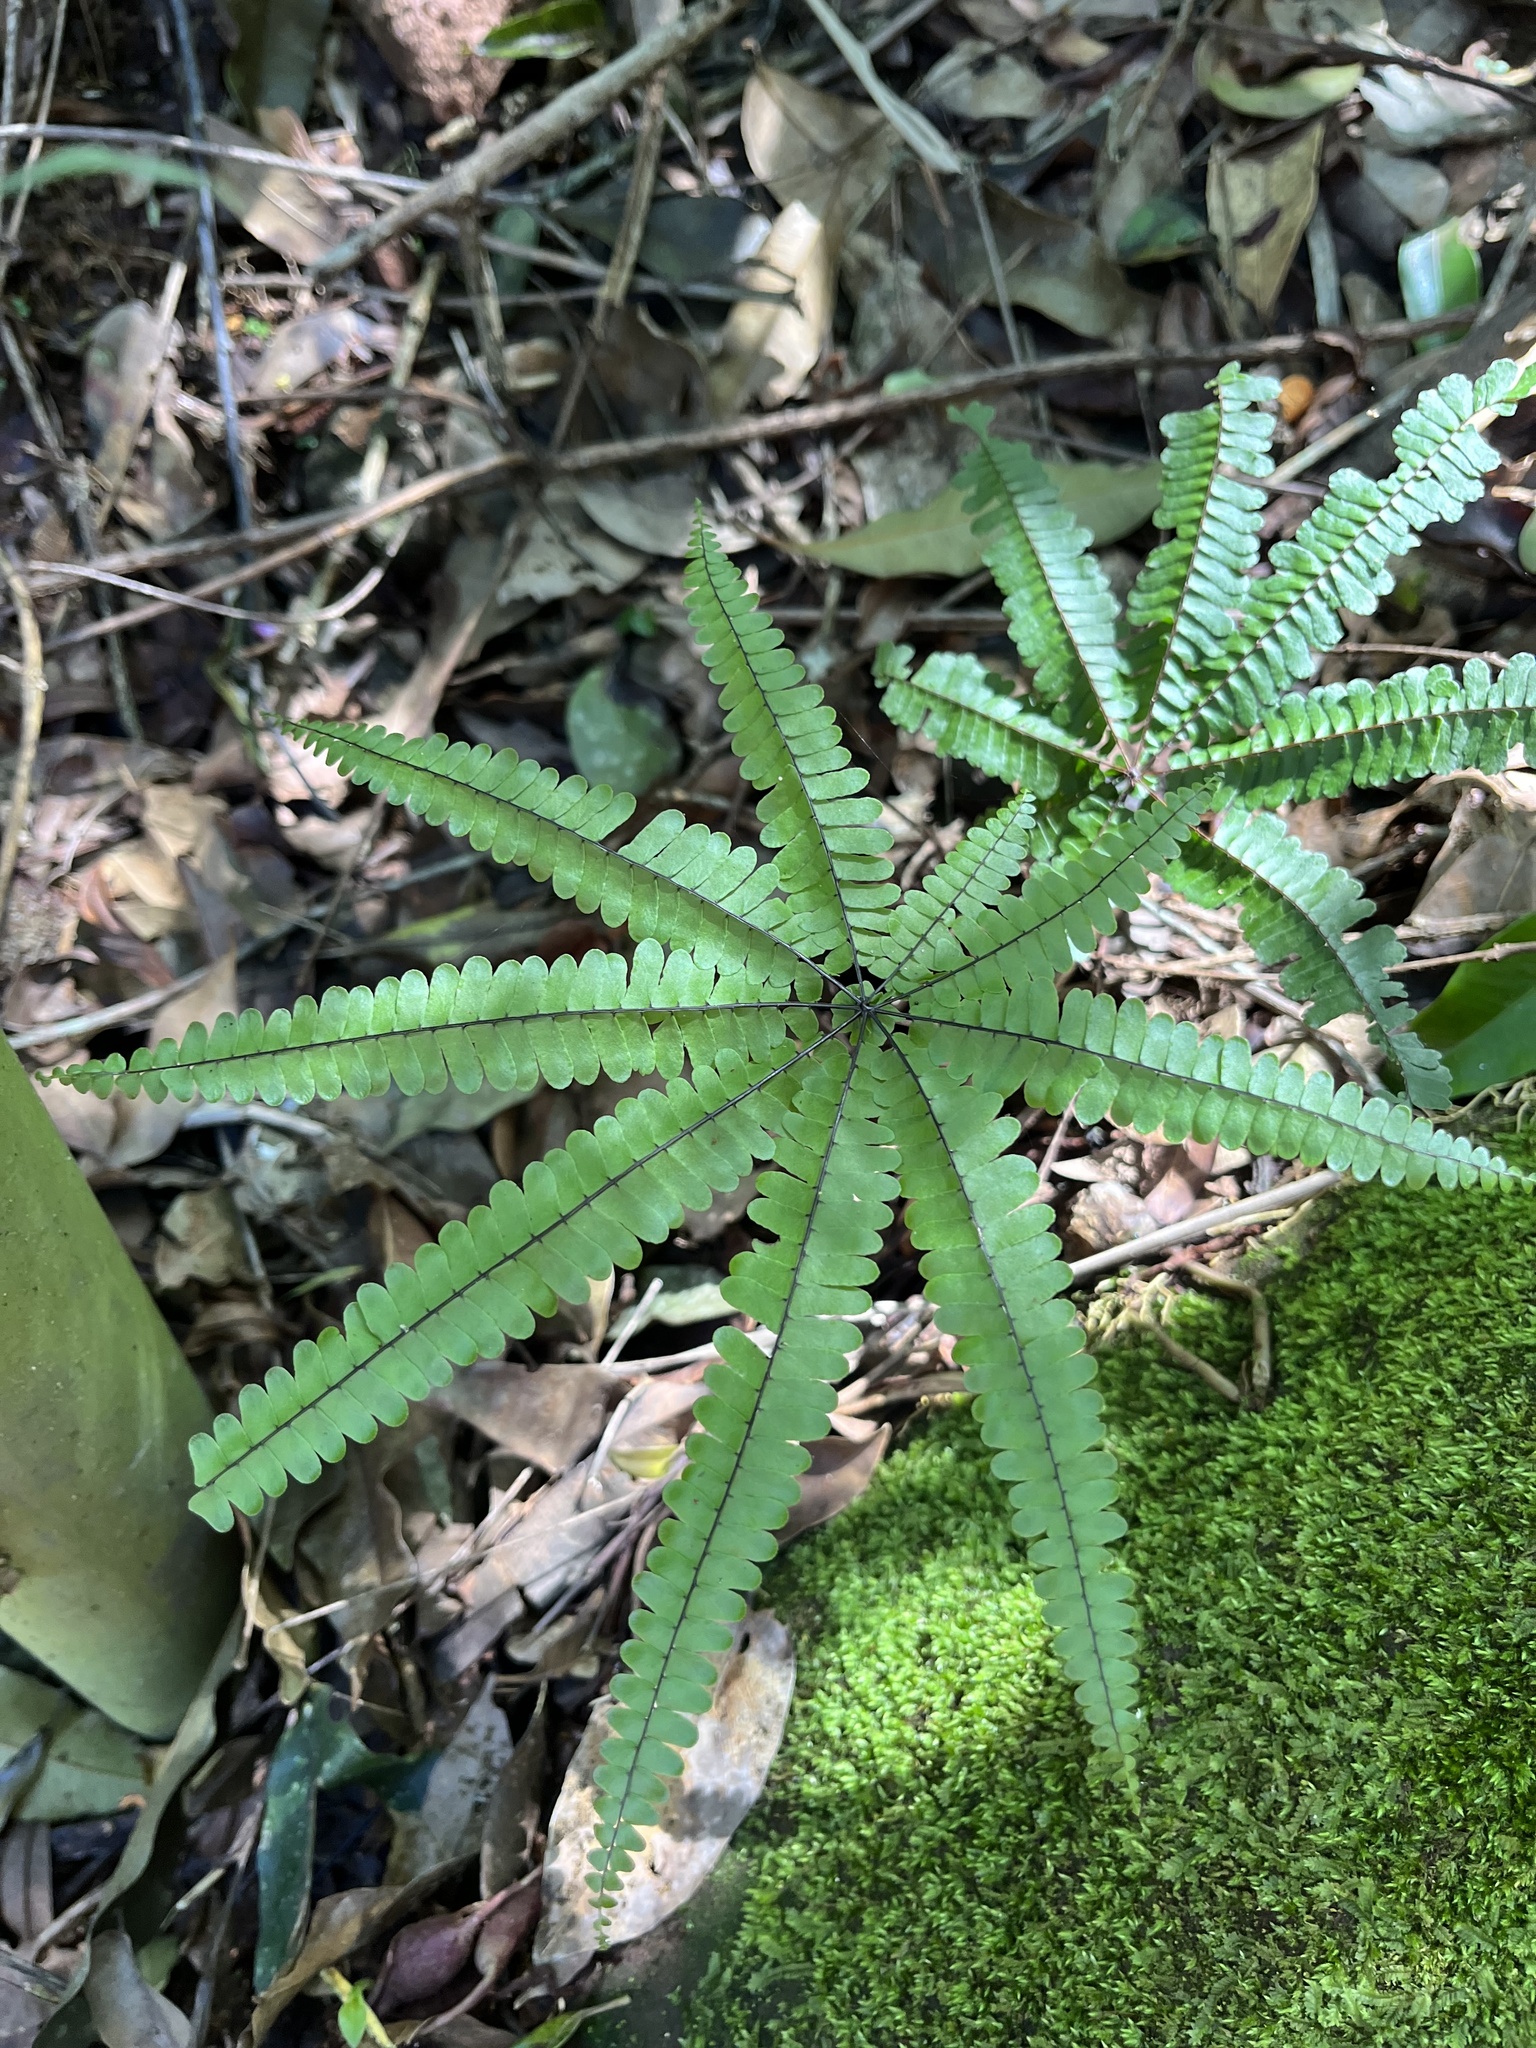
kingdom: Plantae
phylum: Tracheophyta
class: Polypodiopsida
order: Polypodiales
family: Pteridaceae
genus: Adiantopsis
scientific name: Adiantopsis radiata
